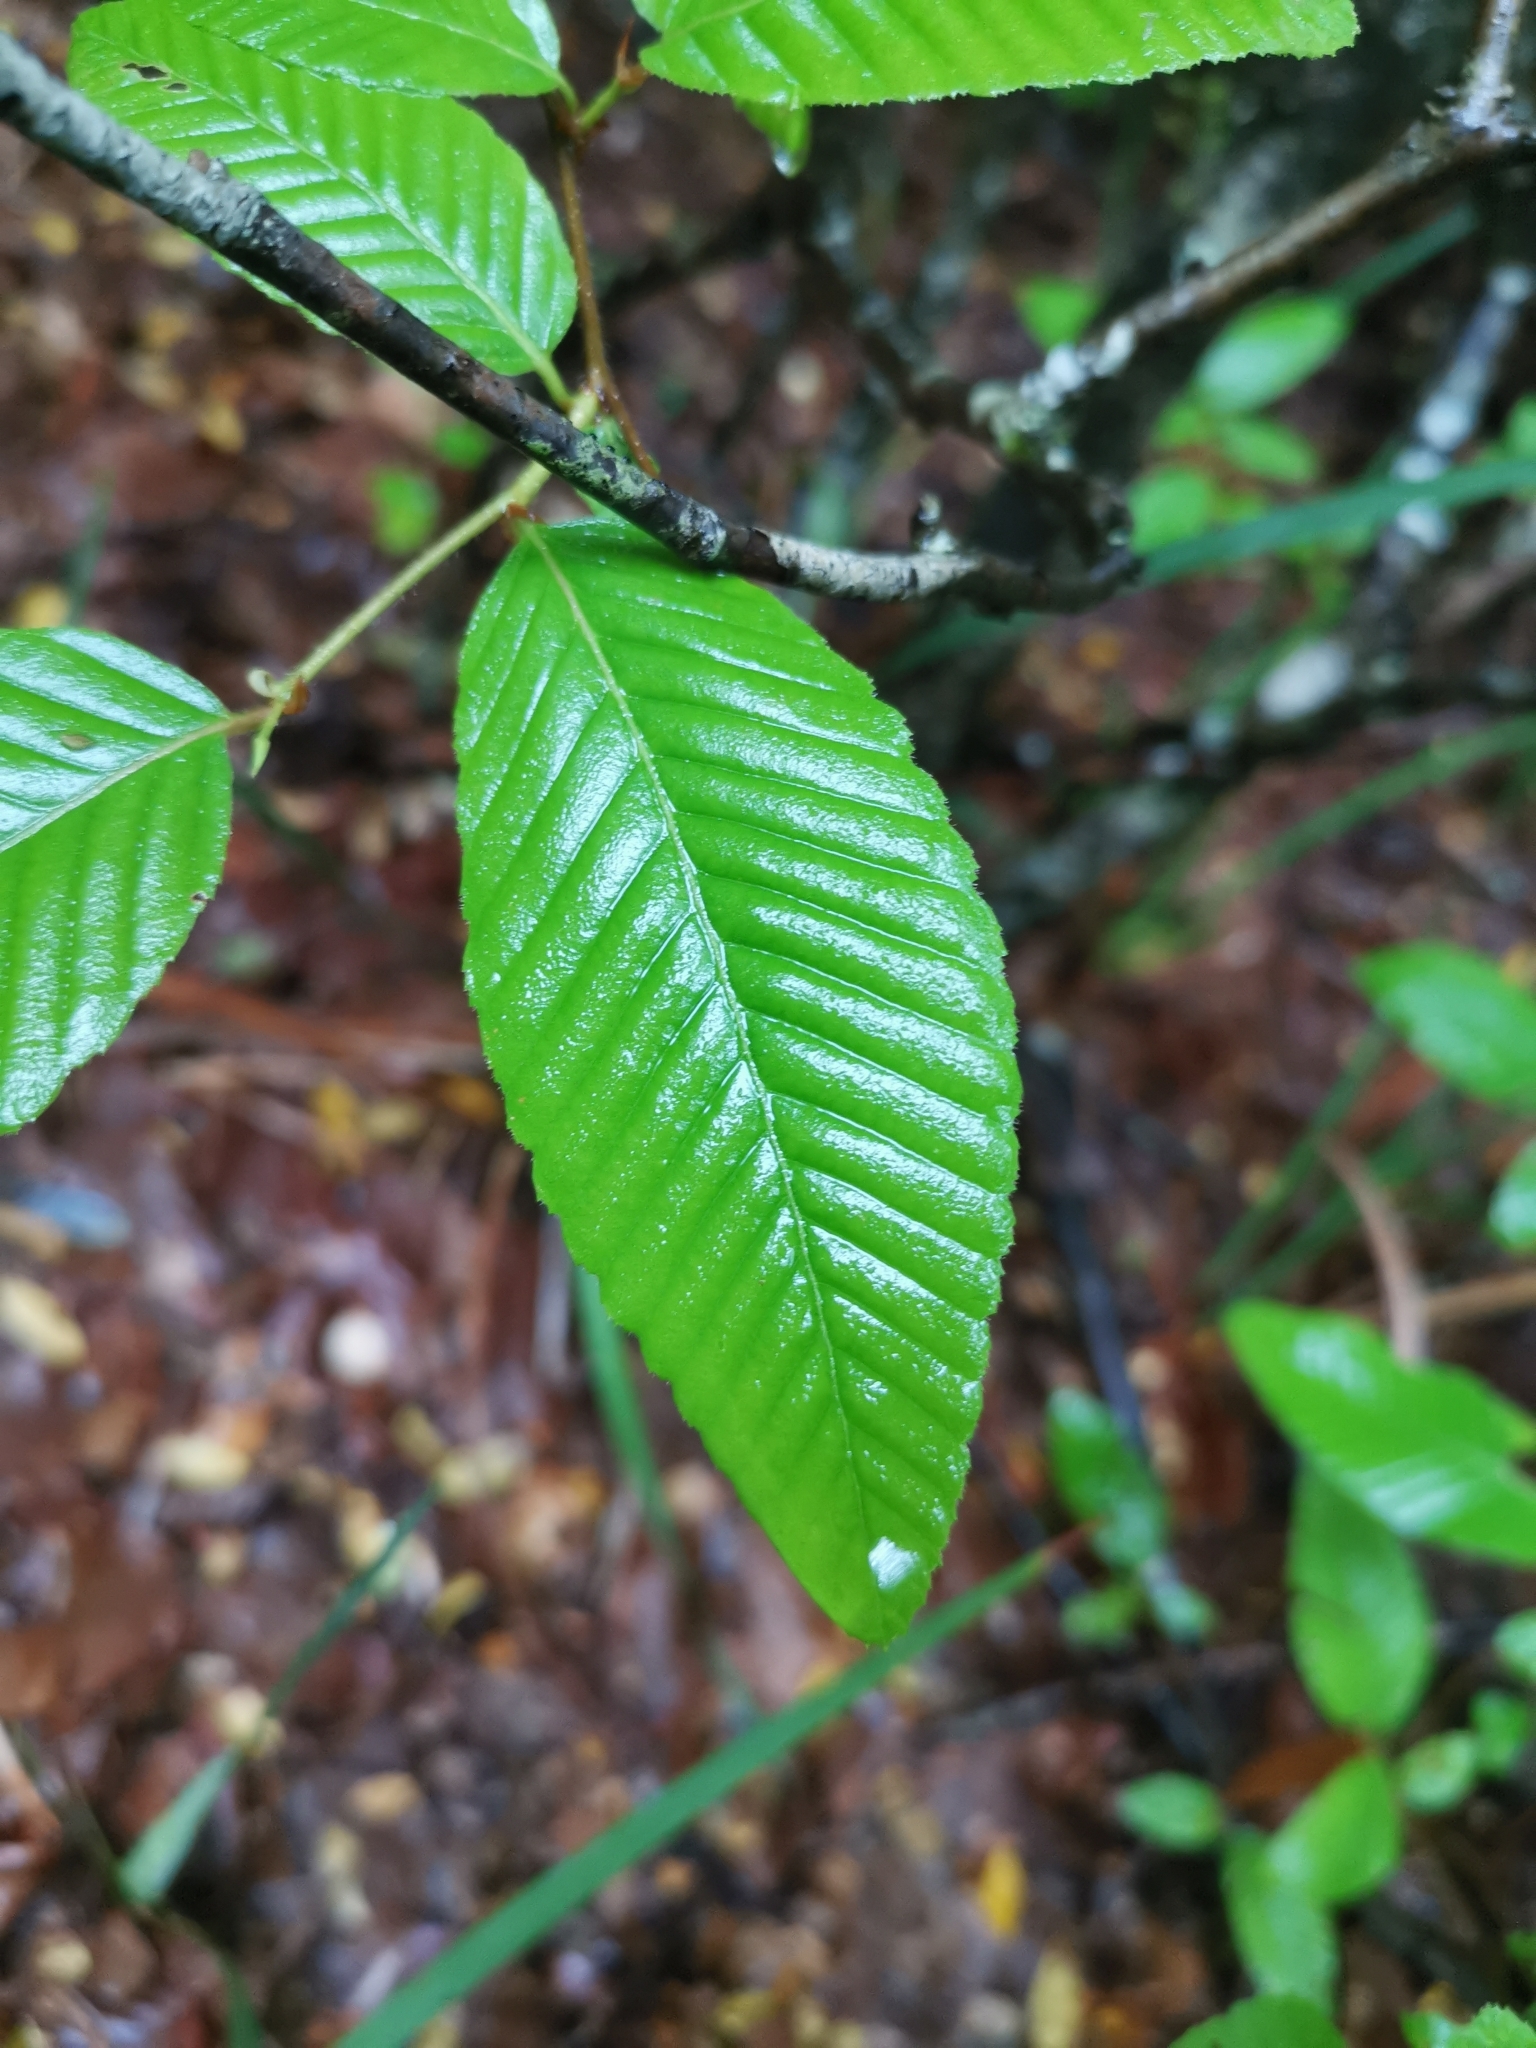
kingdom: Plantae
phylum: Tracheophyta
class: Magnoliopsida
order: Fagales
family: Nothofagaceae
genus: Nothofagus
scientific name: Nothofagus alpina
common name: Rauli
